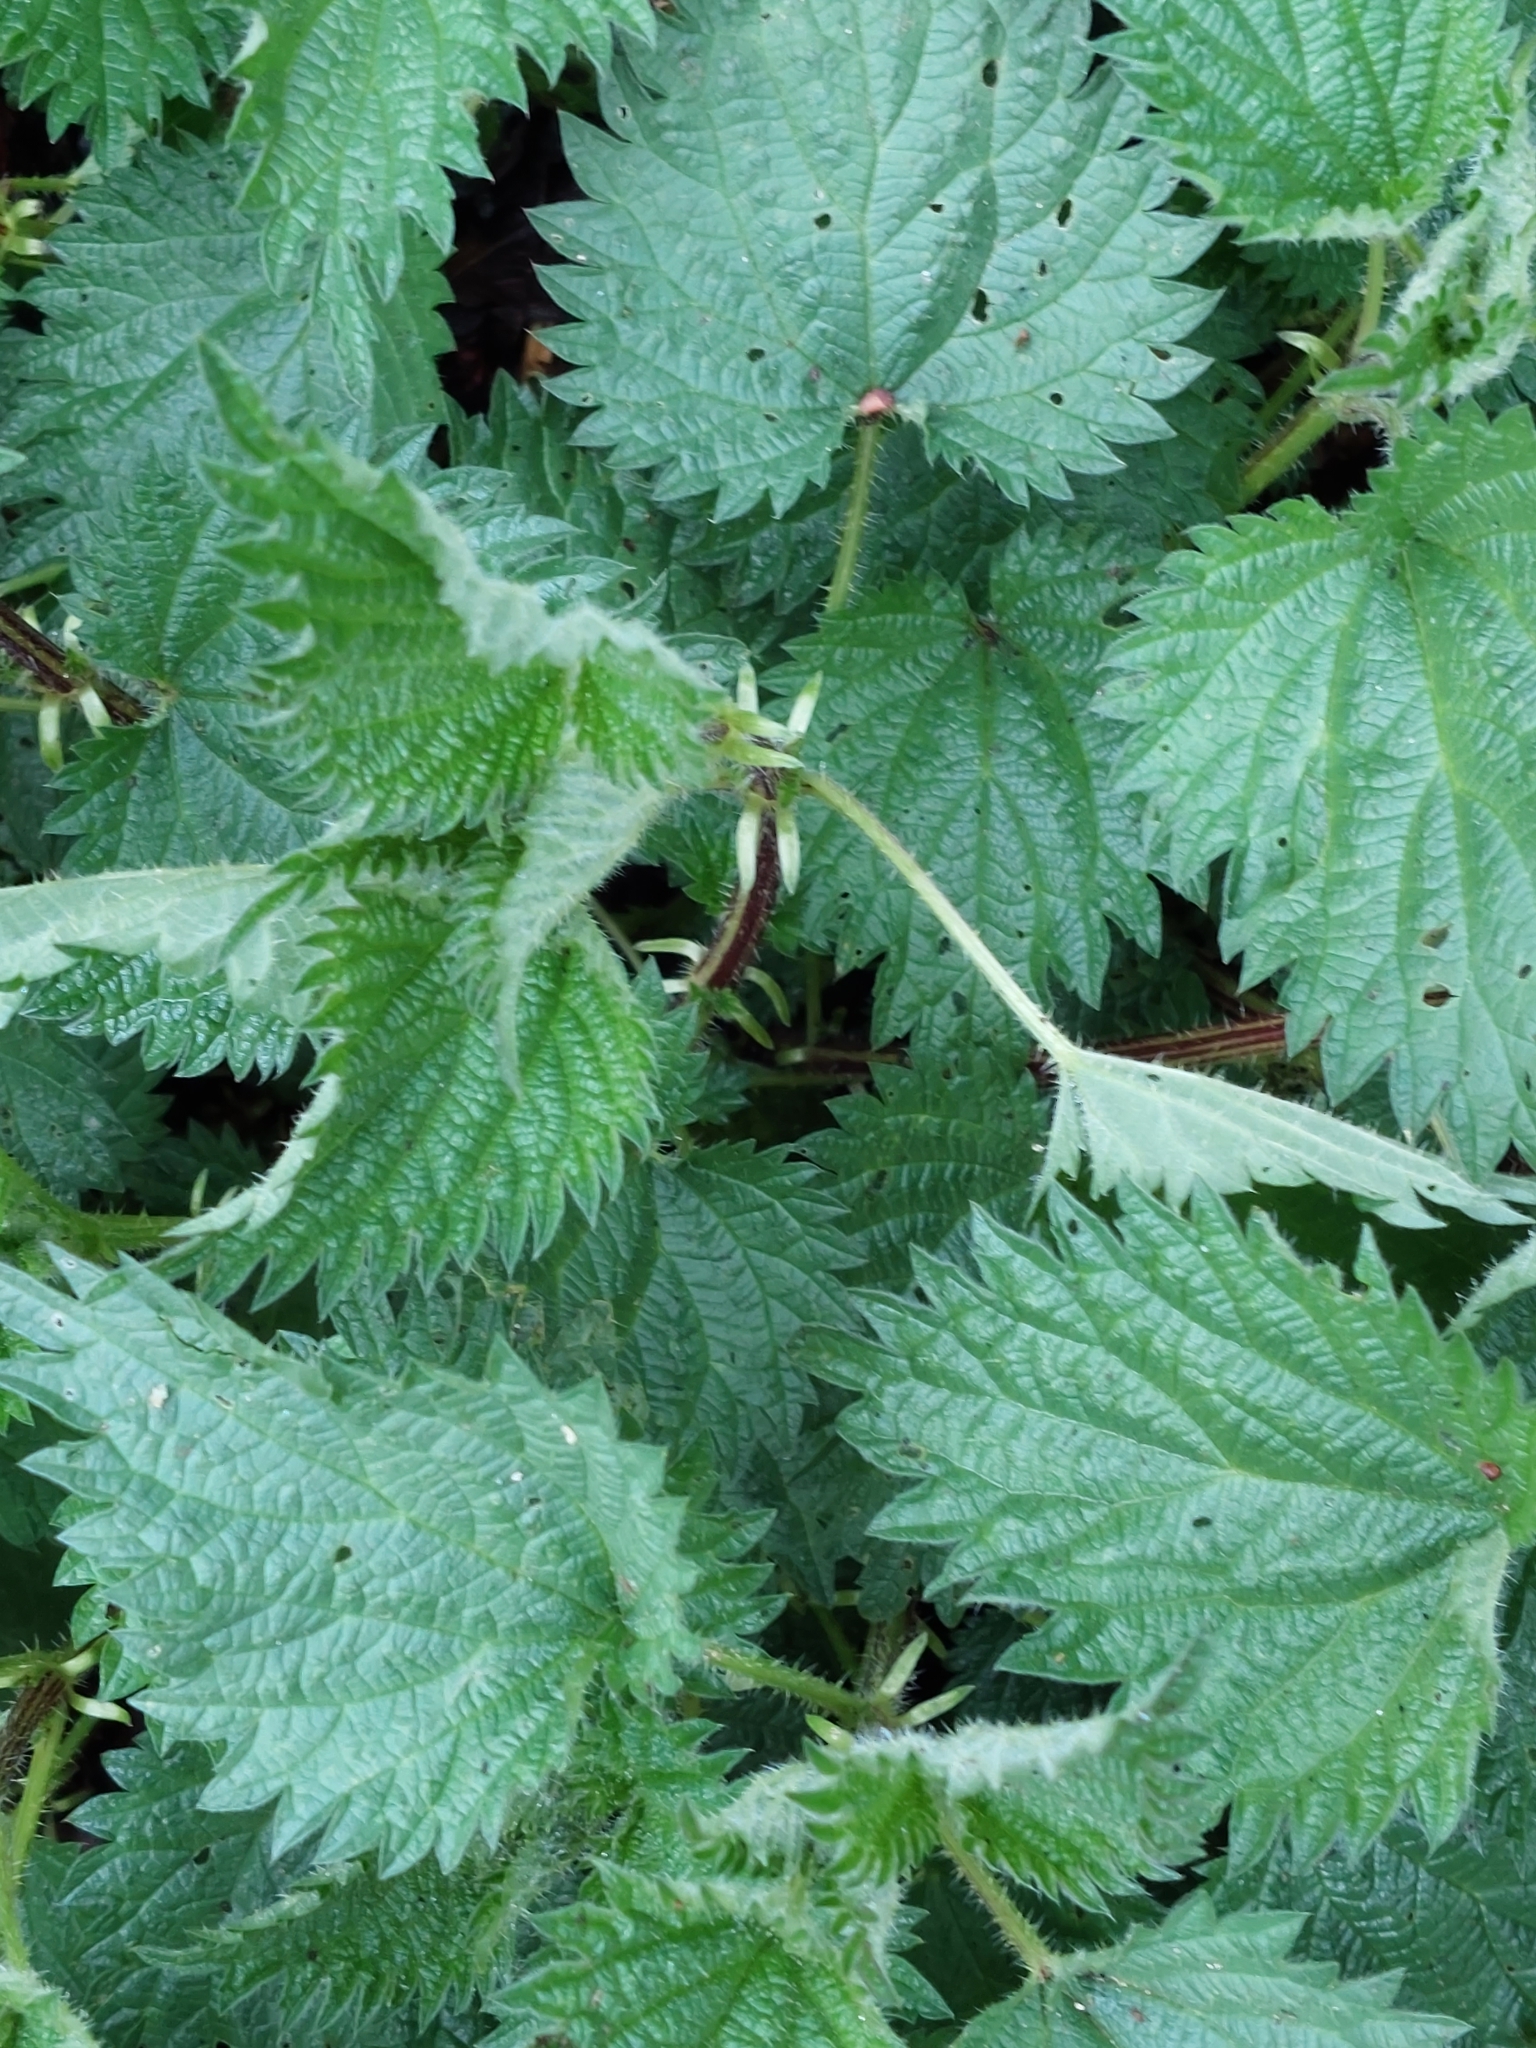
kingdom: Plantae
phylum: Tracheophyta
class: Magnoliopsida
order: Rosales
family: Urticaceae
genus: Urtica
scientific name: Urtica dioica
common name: Common nettle
